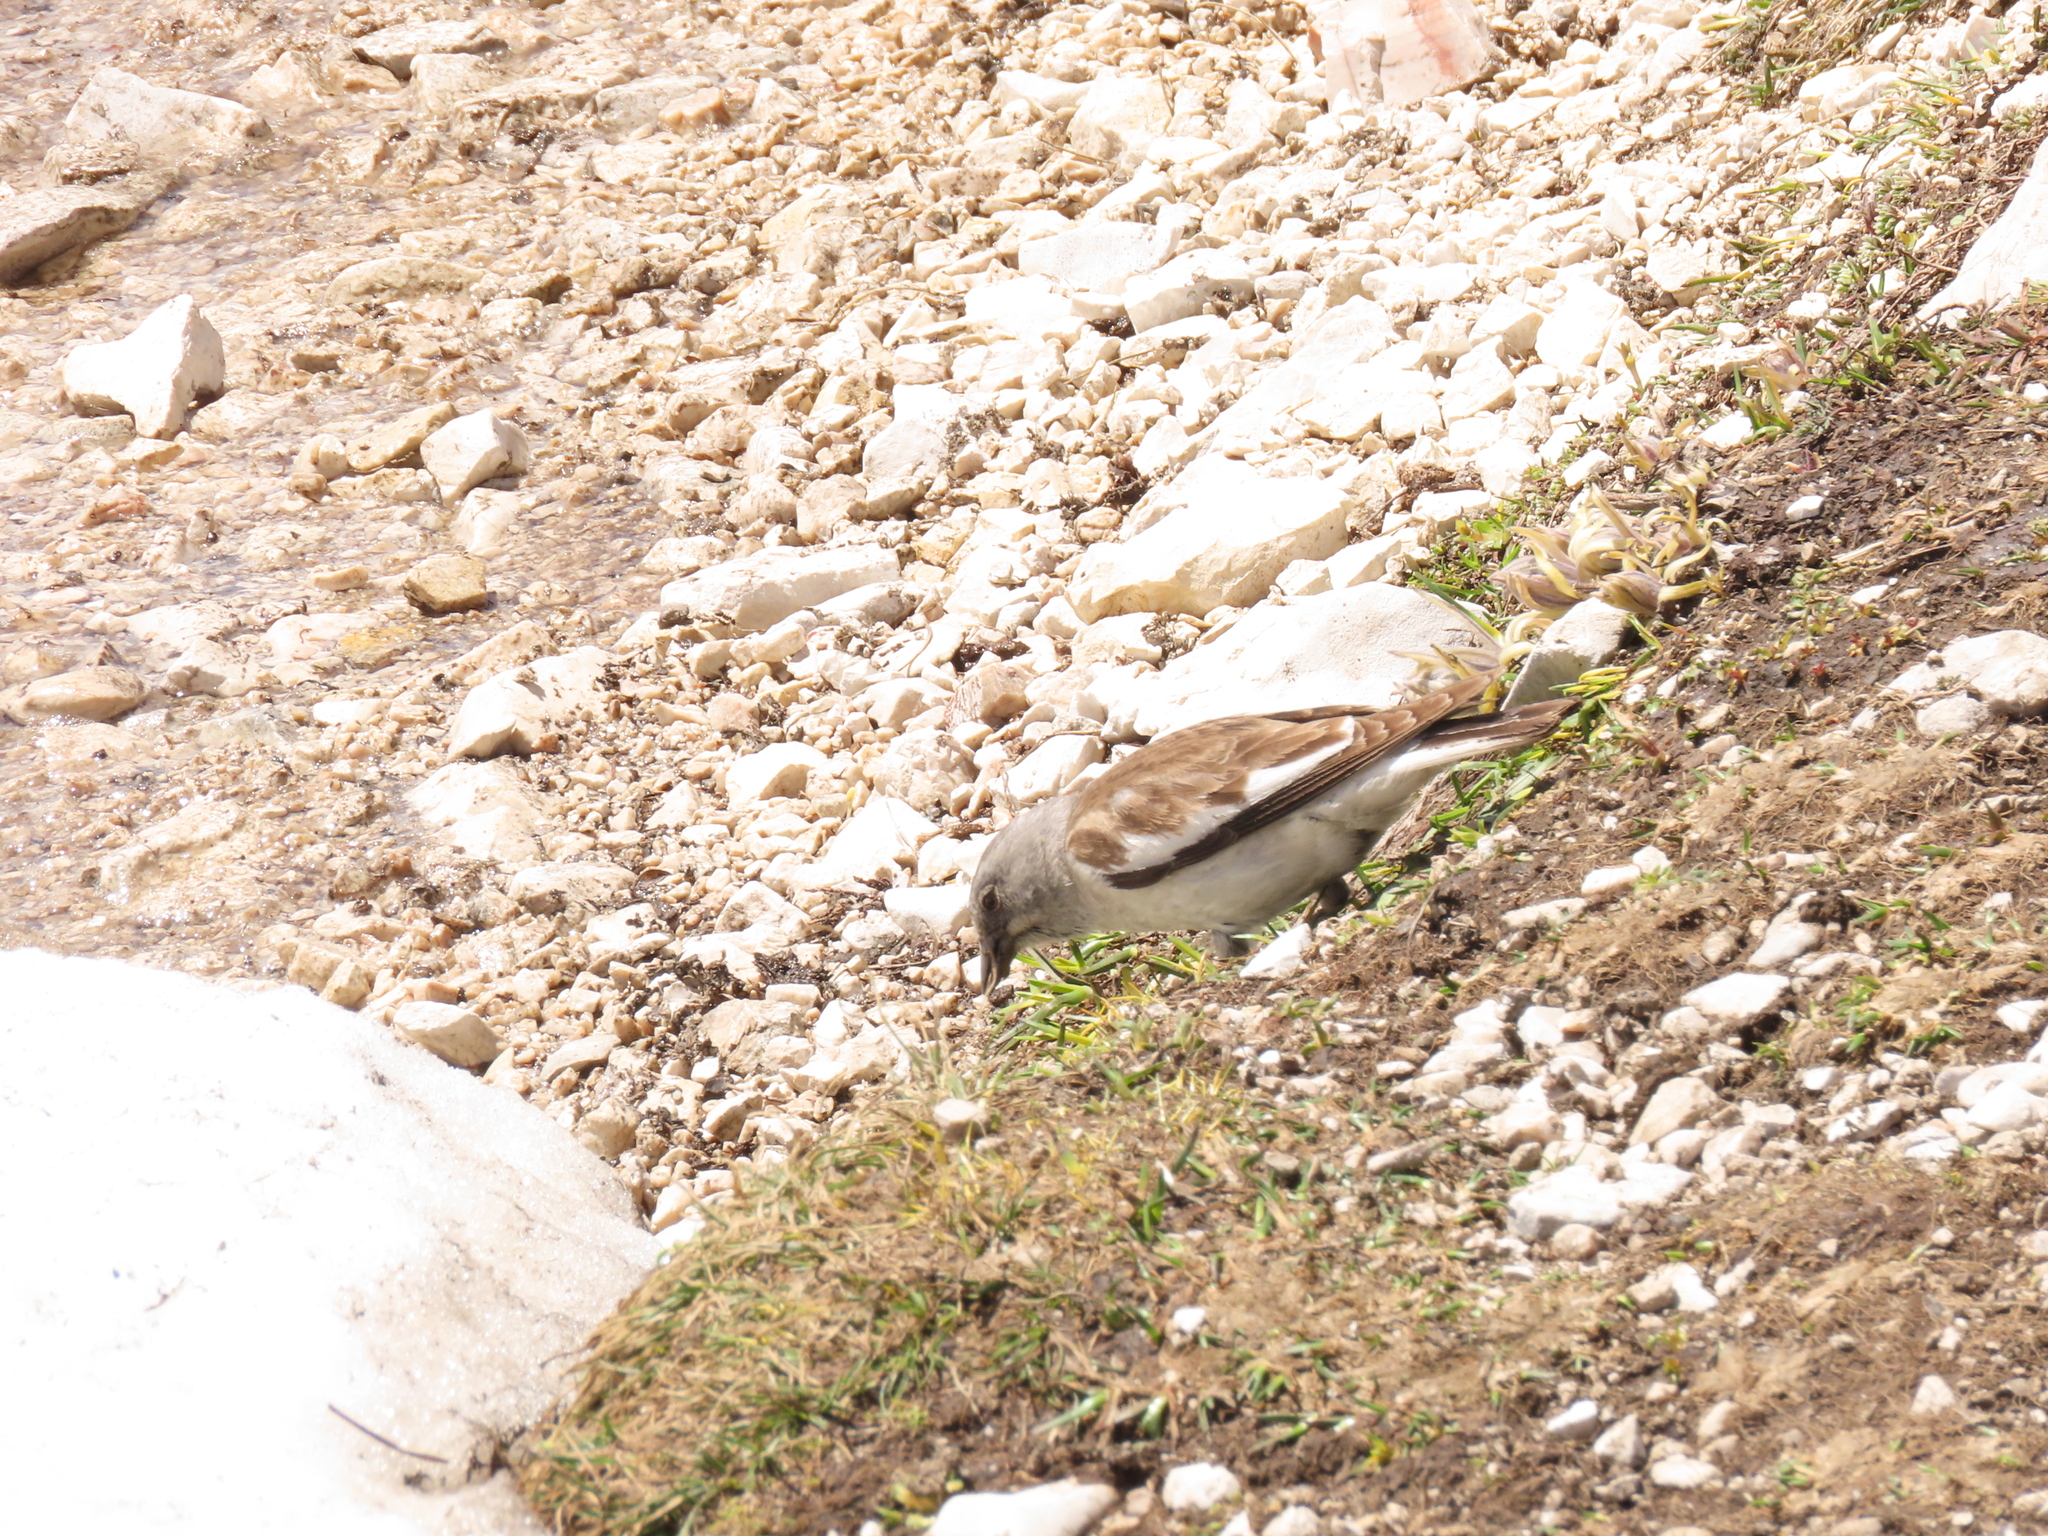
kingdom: Animalia
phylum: Chordata
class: Aves
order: Passeriformes
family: Passeridae
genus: Montifringilla
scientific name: Montifringilla nivalis
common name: White-winged snowfinch
